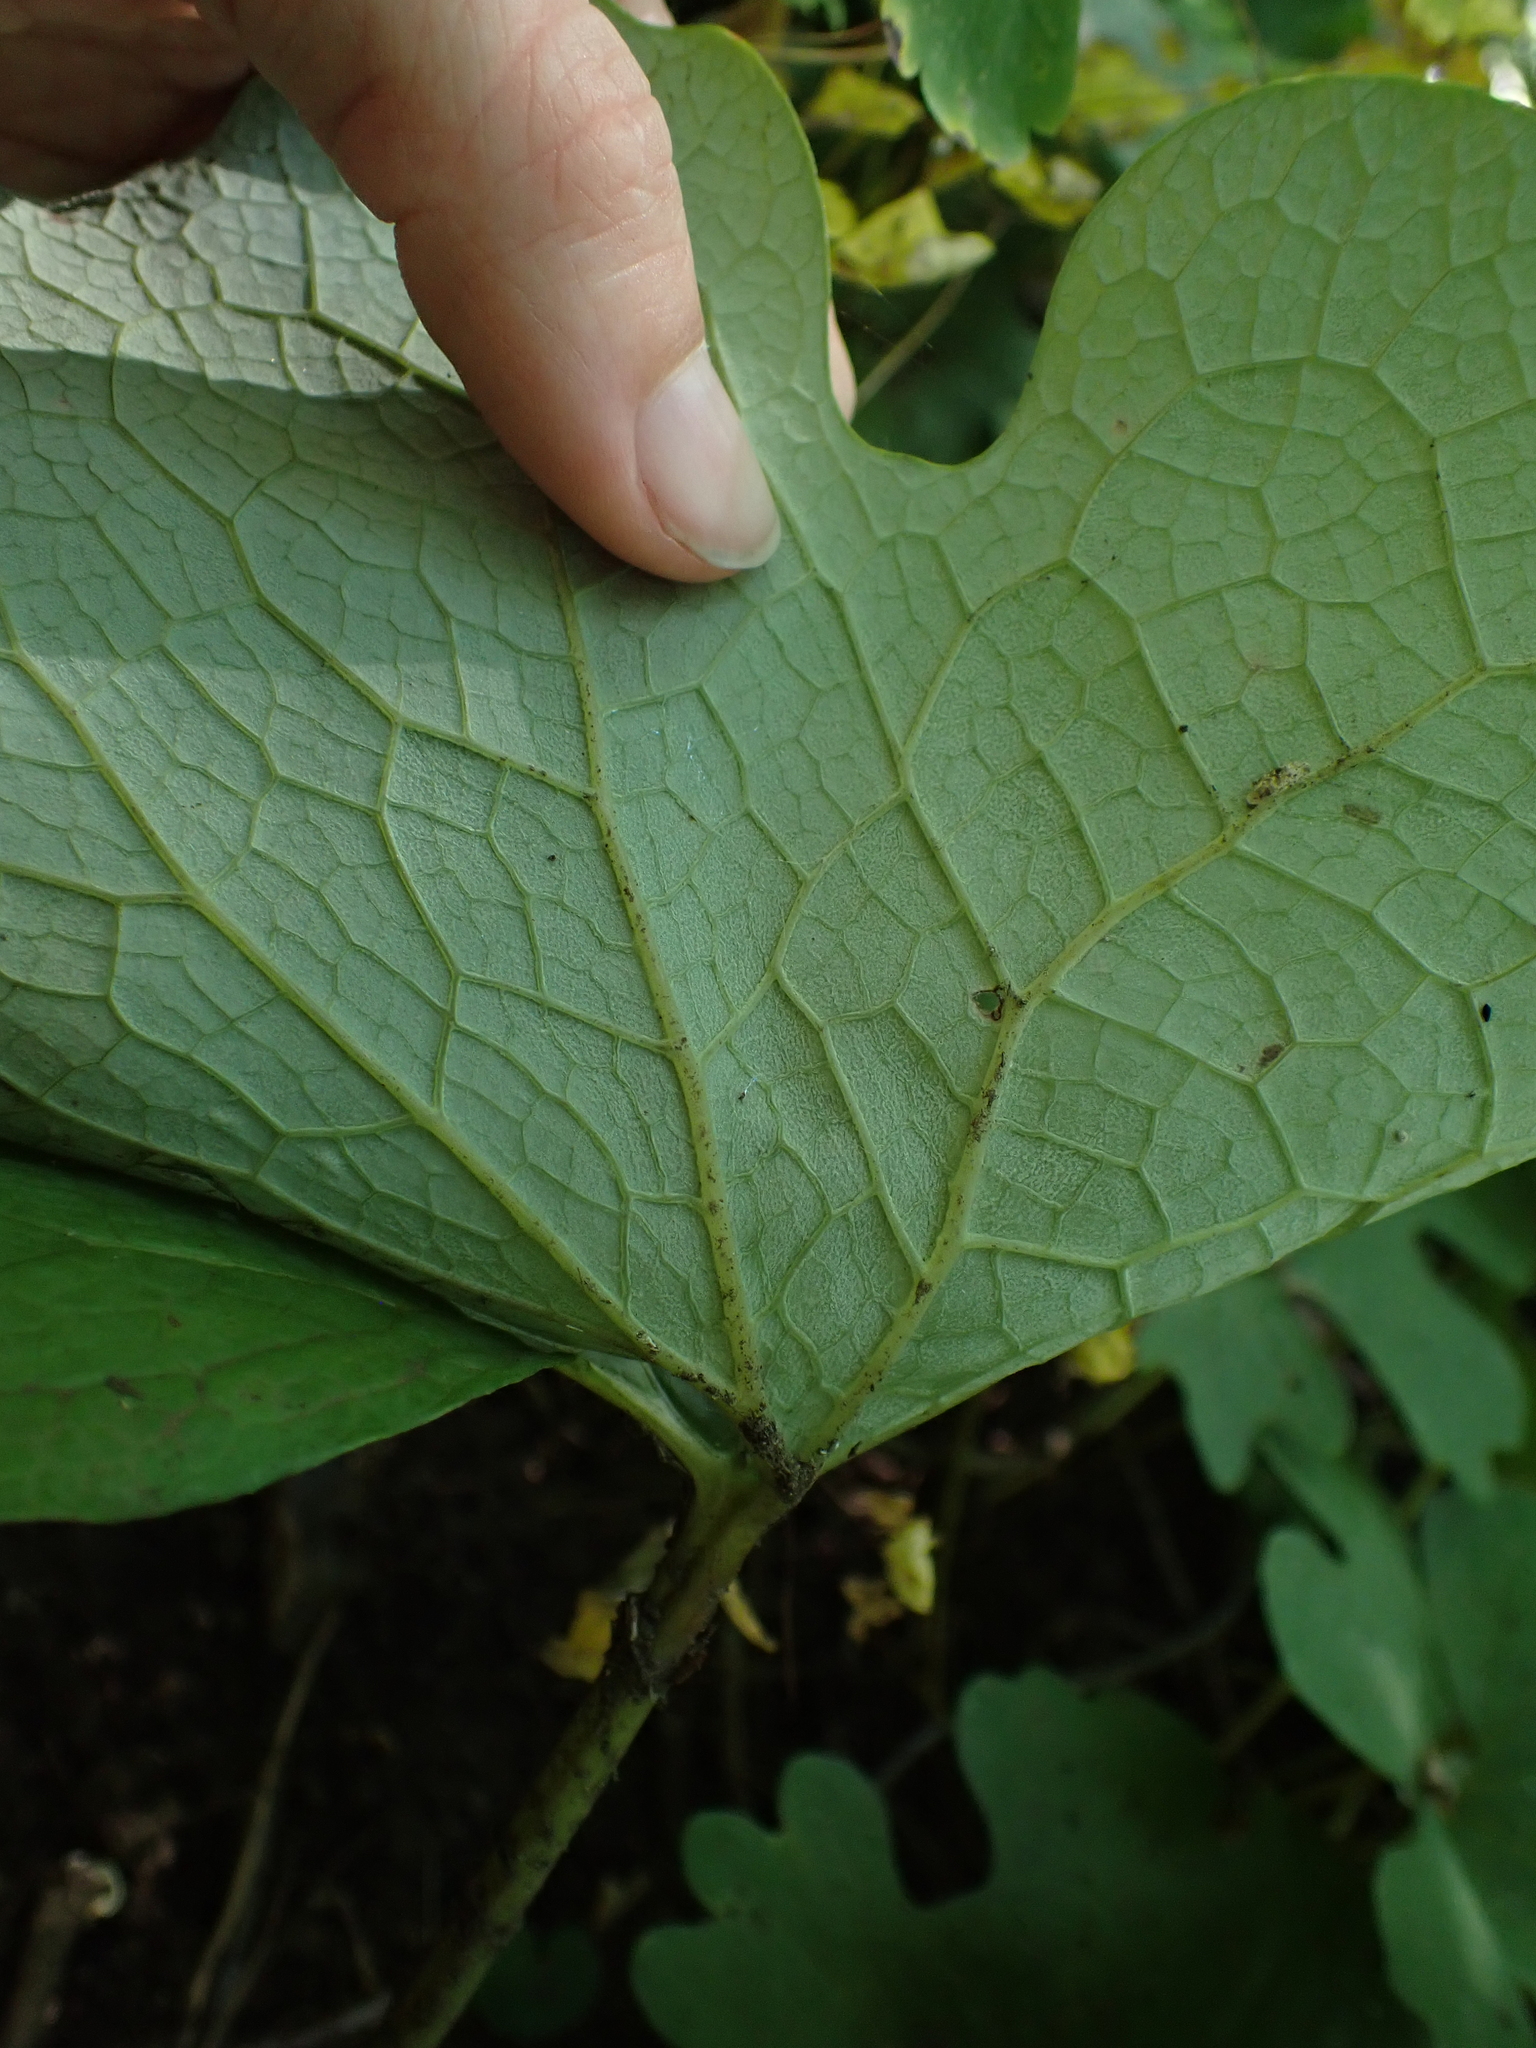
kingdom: Plantae
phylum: Tracheophyta
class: Magnoliopsida
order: Ranunculales
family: Papaveraceae
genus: Sanguinaria
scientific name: Sanguinaria canadensis
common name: Bloodroot
